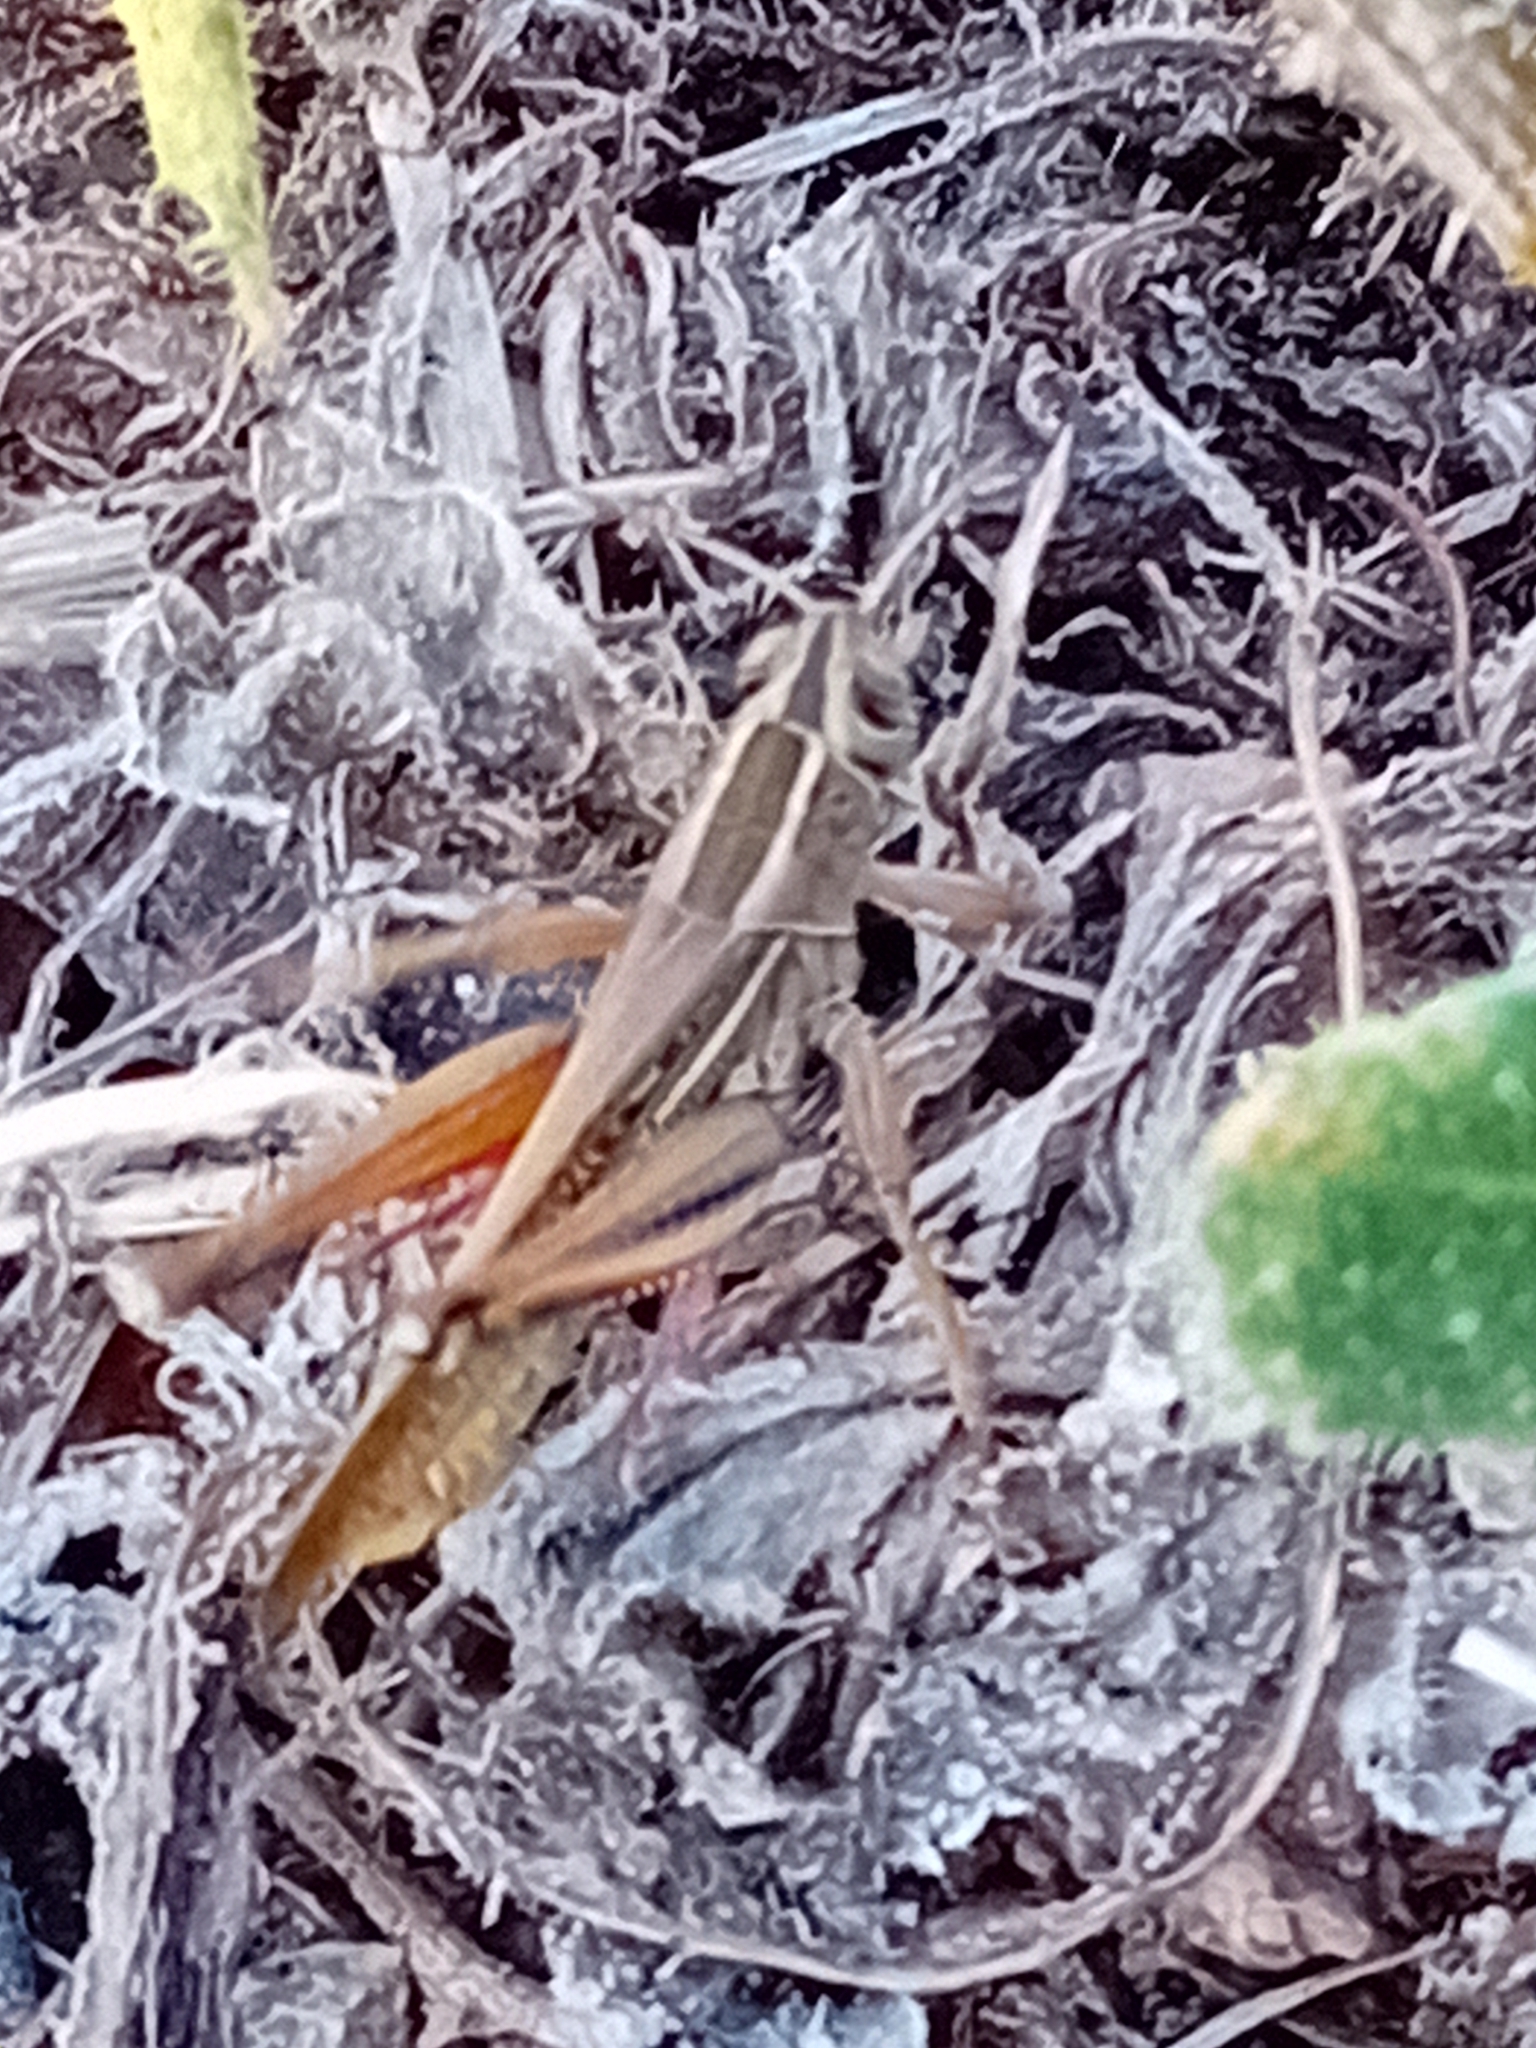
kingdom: Animalia
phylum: Arthropoda
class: Insecta
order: Orthoptera
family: Acrididae
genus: Eyprepocnemis
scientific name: Eyprepocnemis plorans
